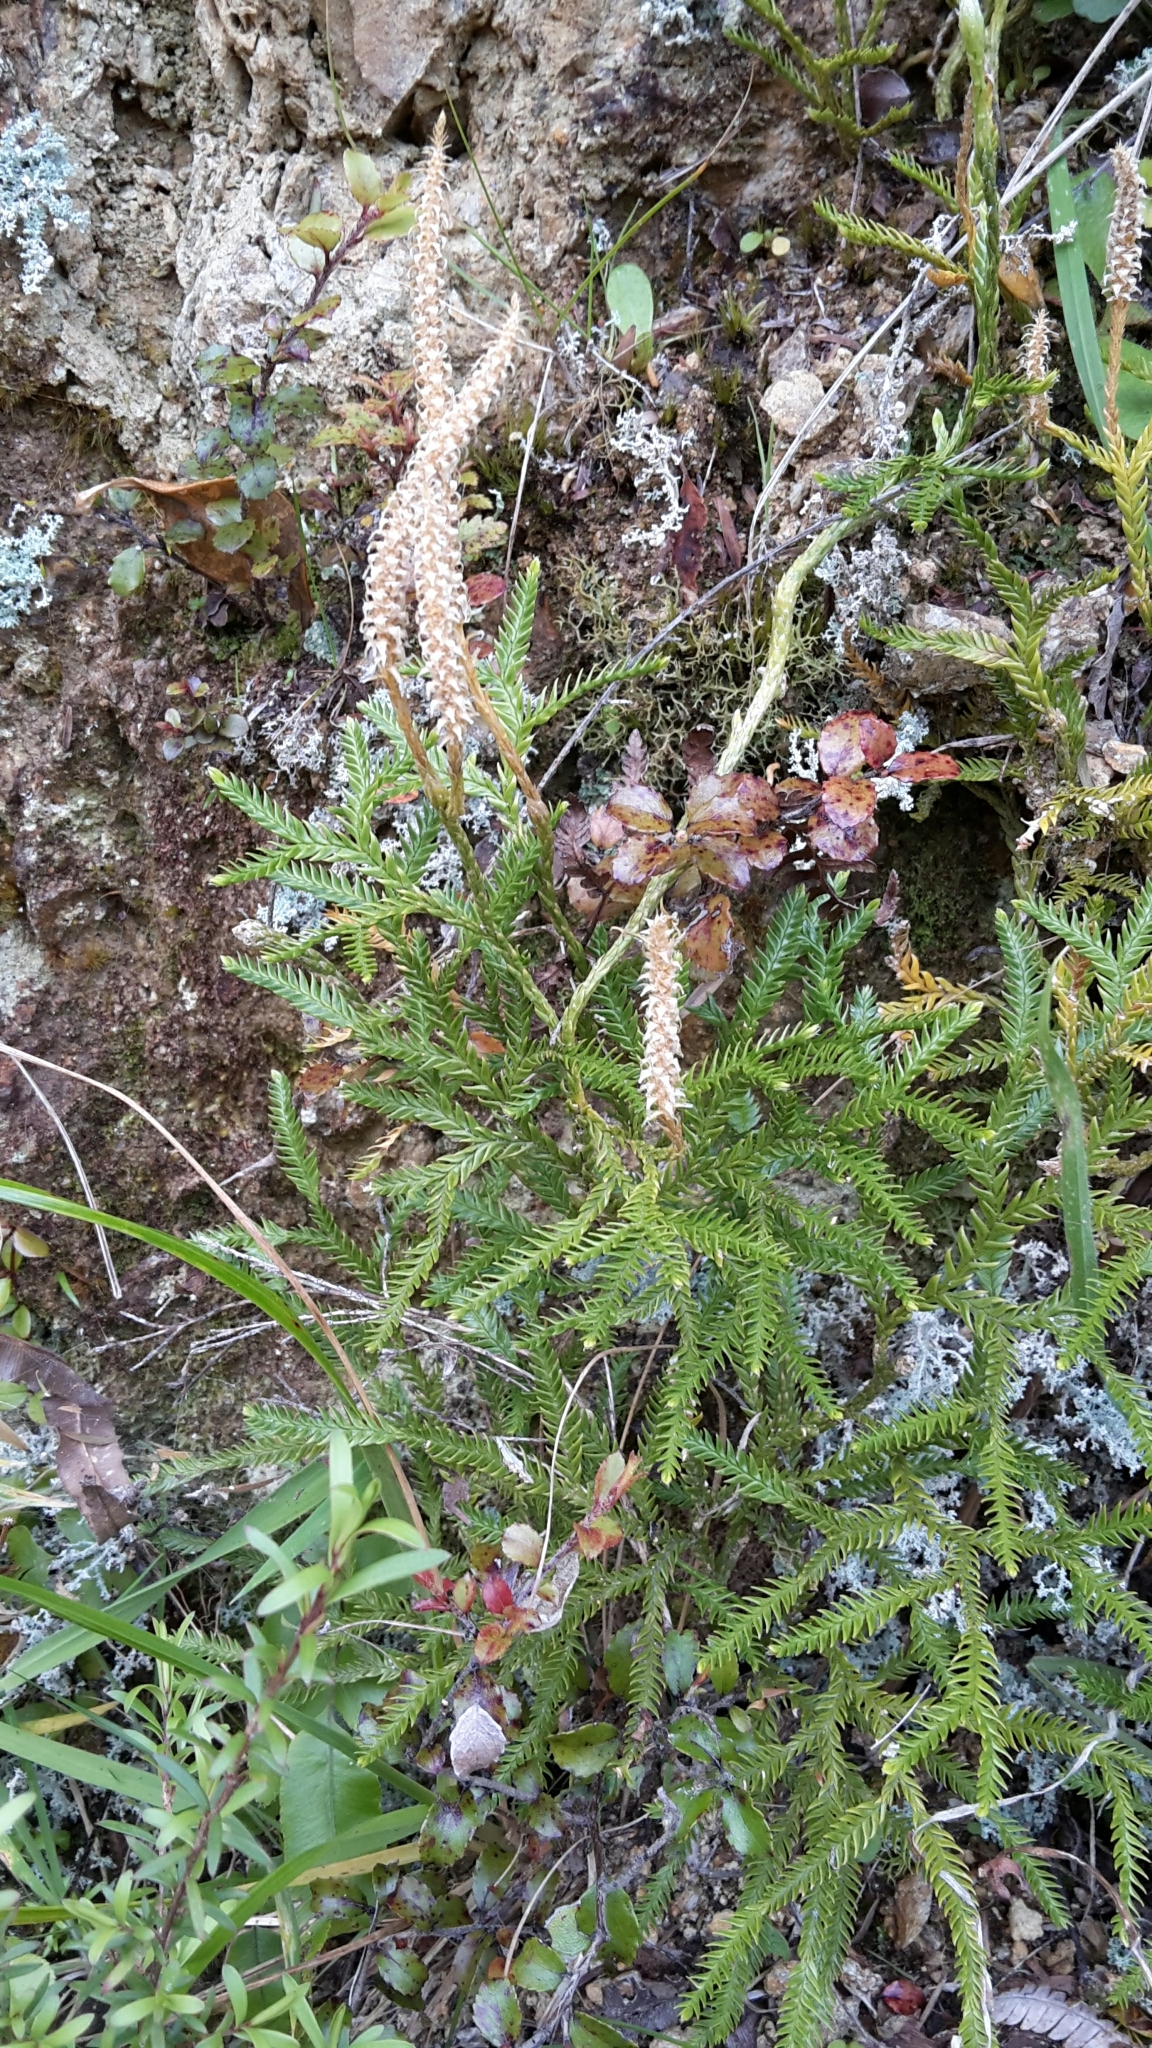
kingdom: Plantae
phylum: Tracheophyta
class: Lycopodiopsida
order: Lycopodiales
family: Lycopodiaceae
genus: Diphasium
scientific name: Diphasium scariosum
